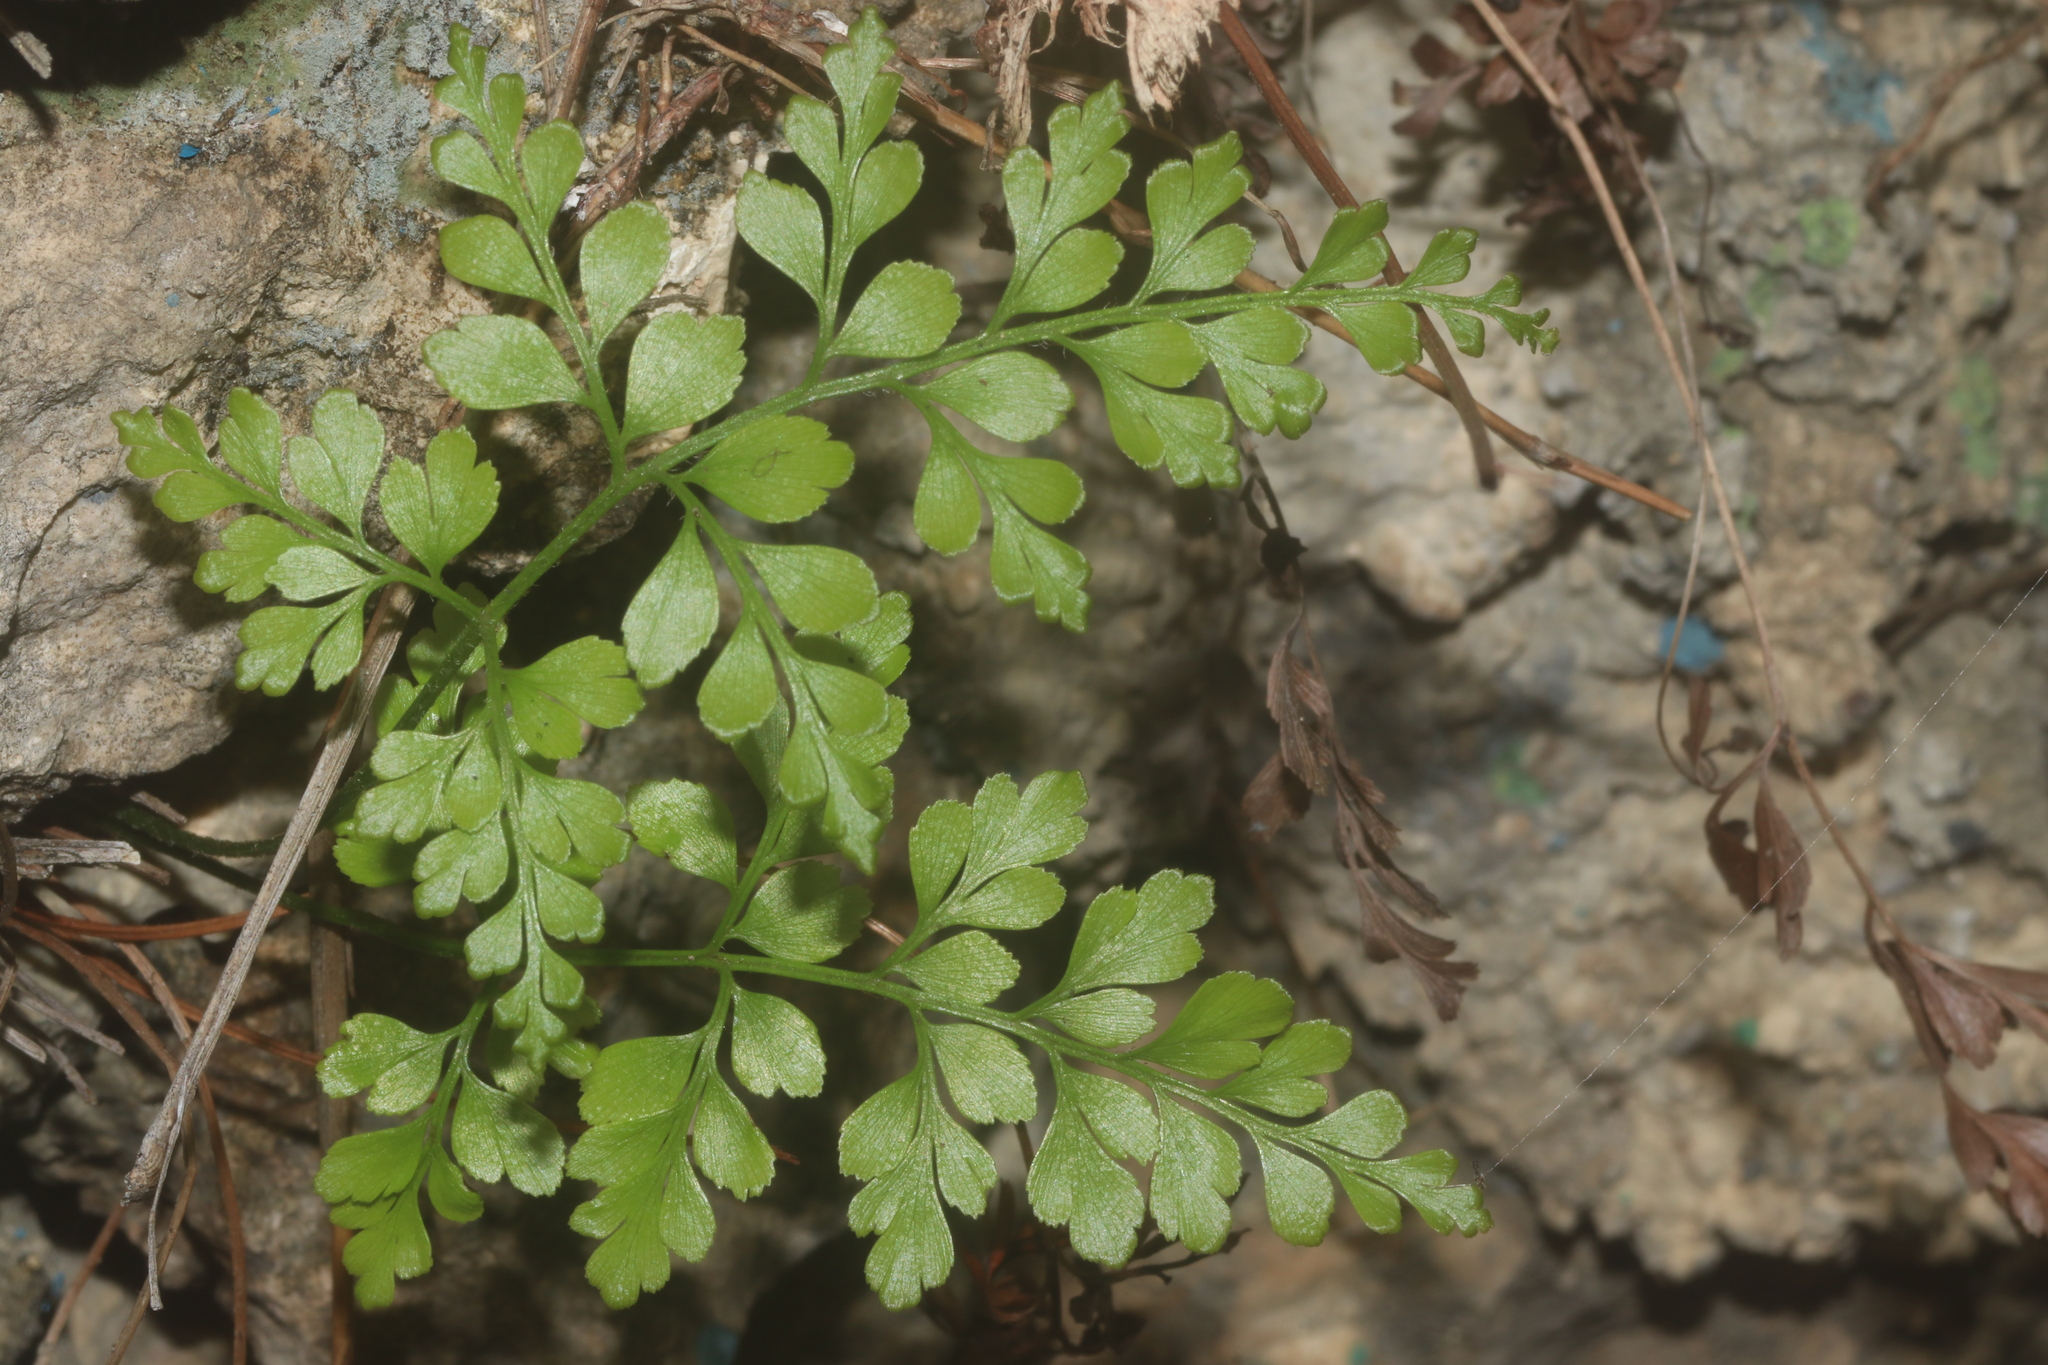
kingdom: Plantae
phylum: Tracheophyta
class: Polypodiopsida
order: Schizaeales
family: Anemiaceae
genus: Anemia
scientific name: Anemia adiantifolia
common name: Pine fern
